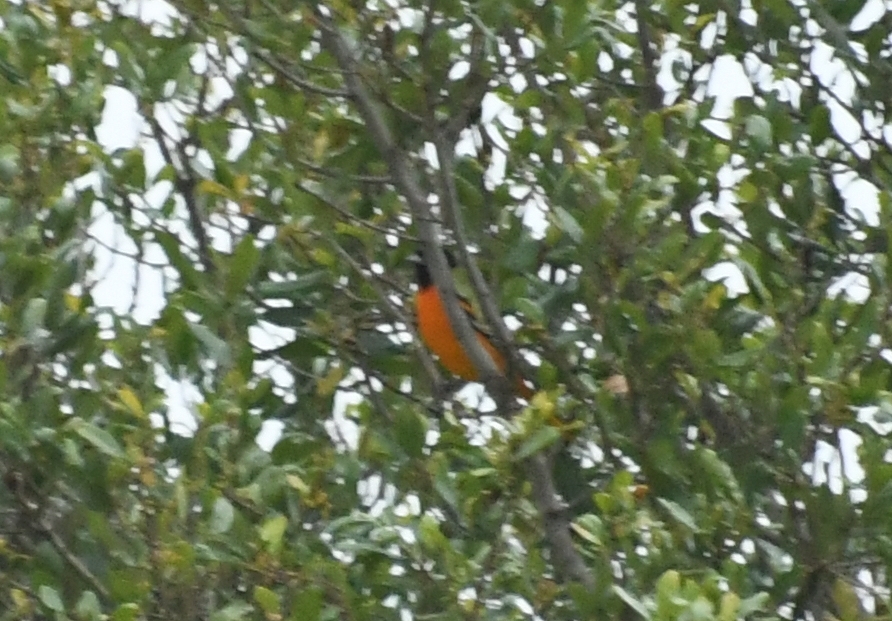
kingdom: Animalia
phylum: Chordata
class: Aves
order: Passeriformes
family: Icteridae
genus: Icterus
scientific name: Icterus galbula
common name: Baltimore oriole
